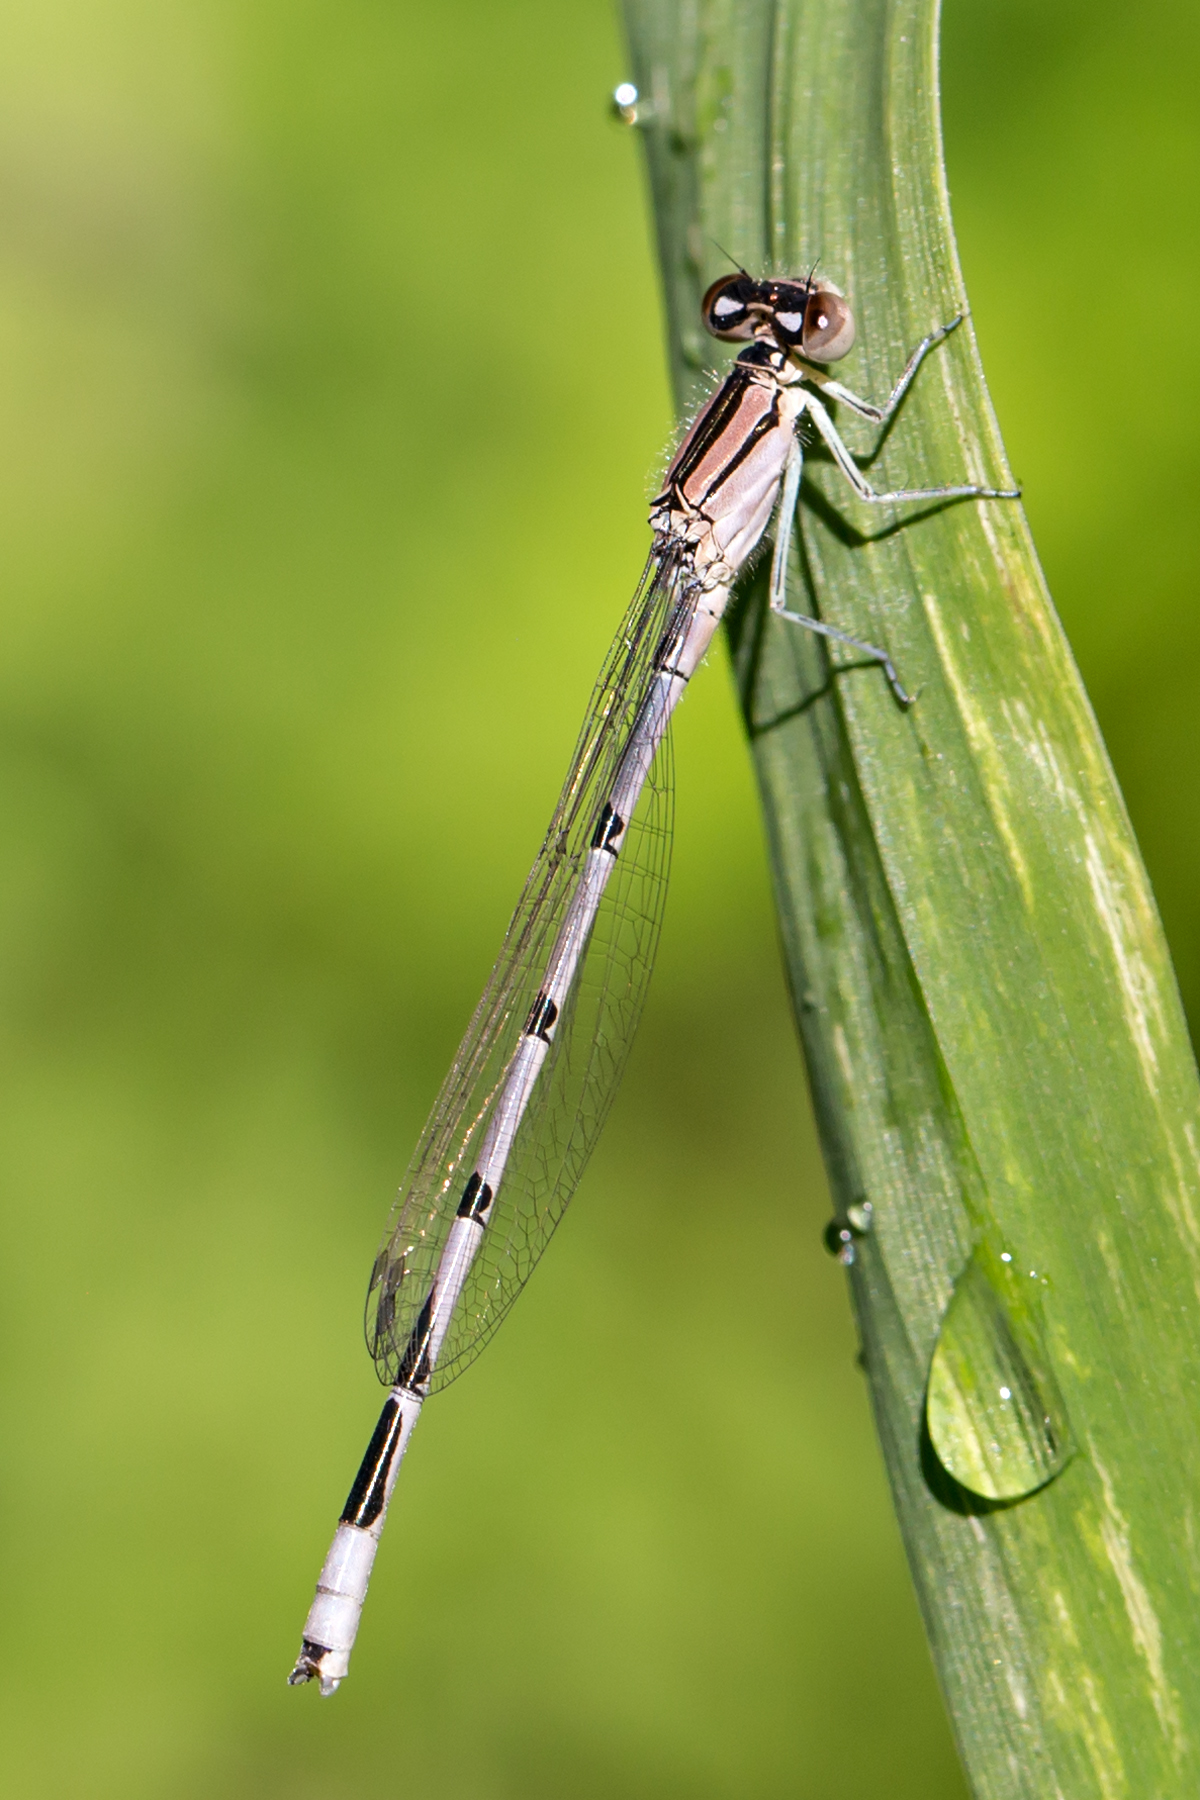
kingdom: Animalia
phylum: Arthropoda
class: Insecta
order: Odonata
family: Coenagrionidae
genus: Enallagma
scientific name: Enallagma civile
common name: Damselfly
